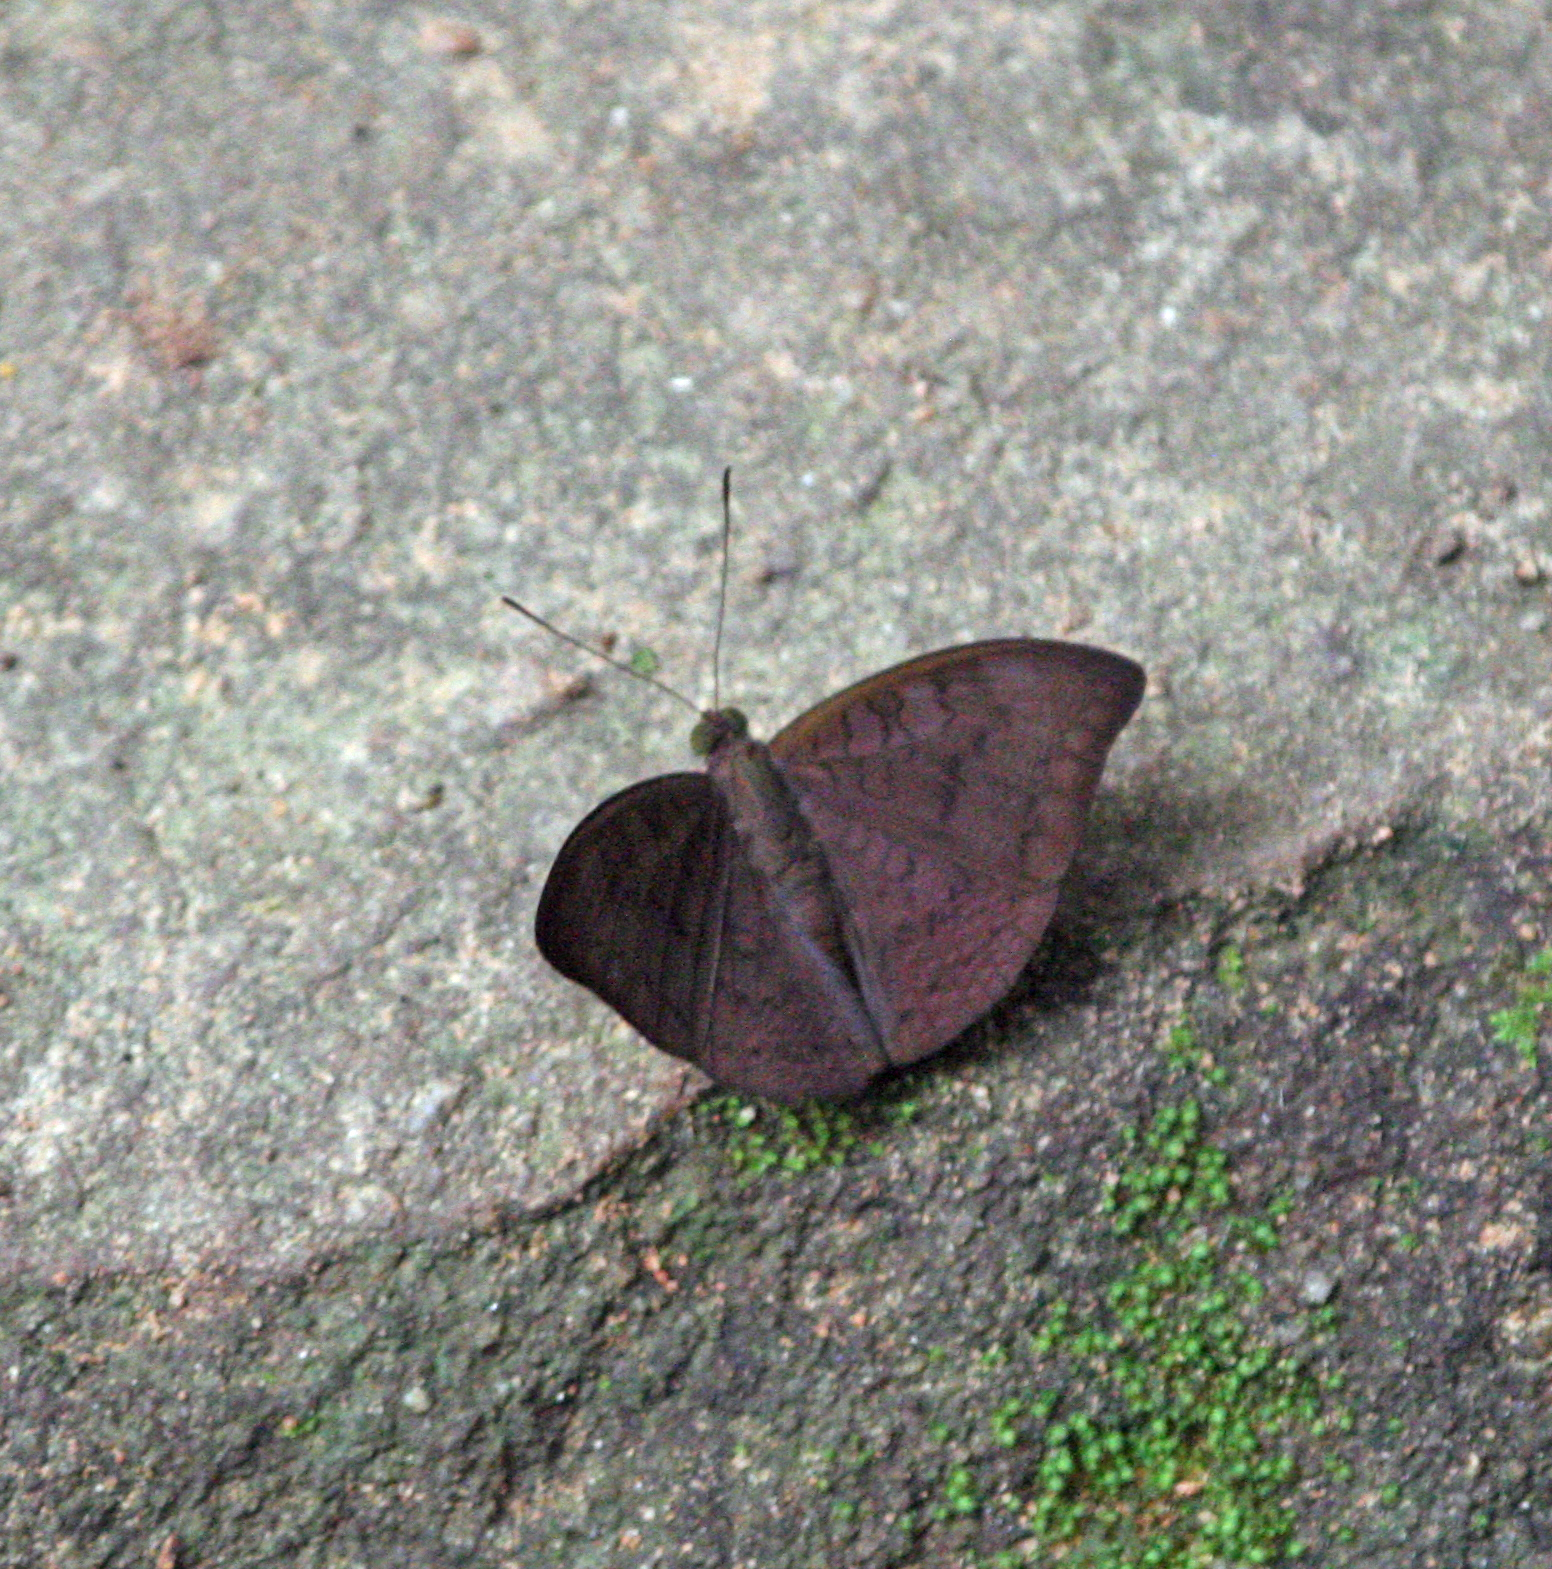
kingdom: Animalia
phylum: Arthropoda
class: Insecta
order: Lepidoptera
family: Nymphalidae
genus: Tanaecia
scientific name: Tanaecia jahnu
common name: Plain earl
